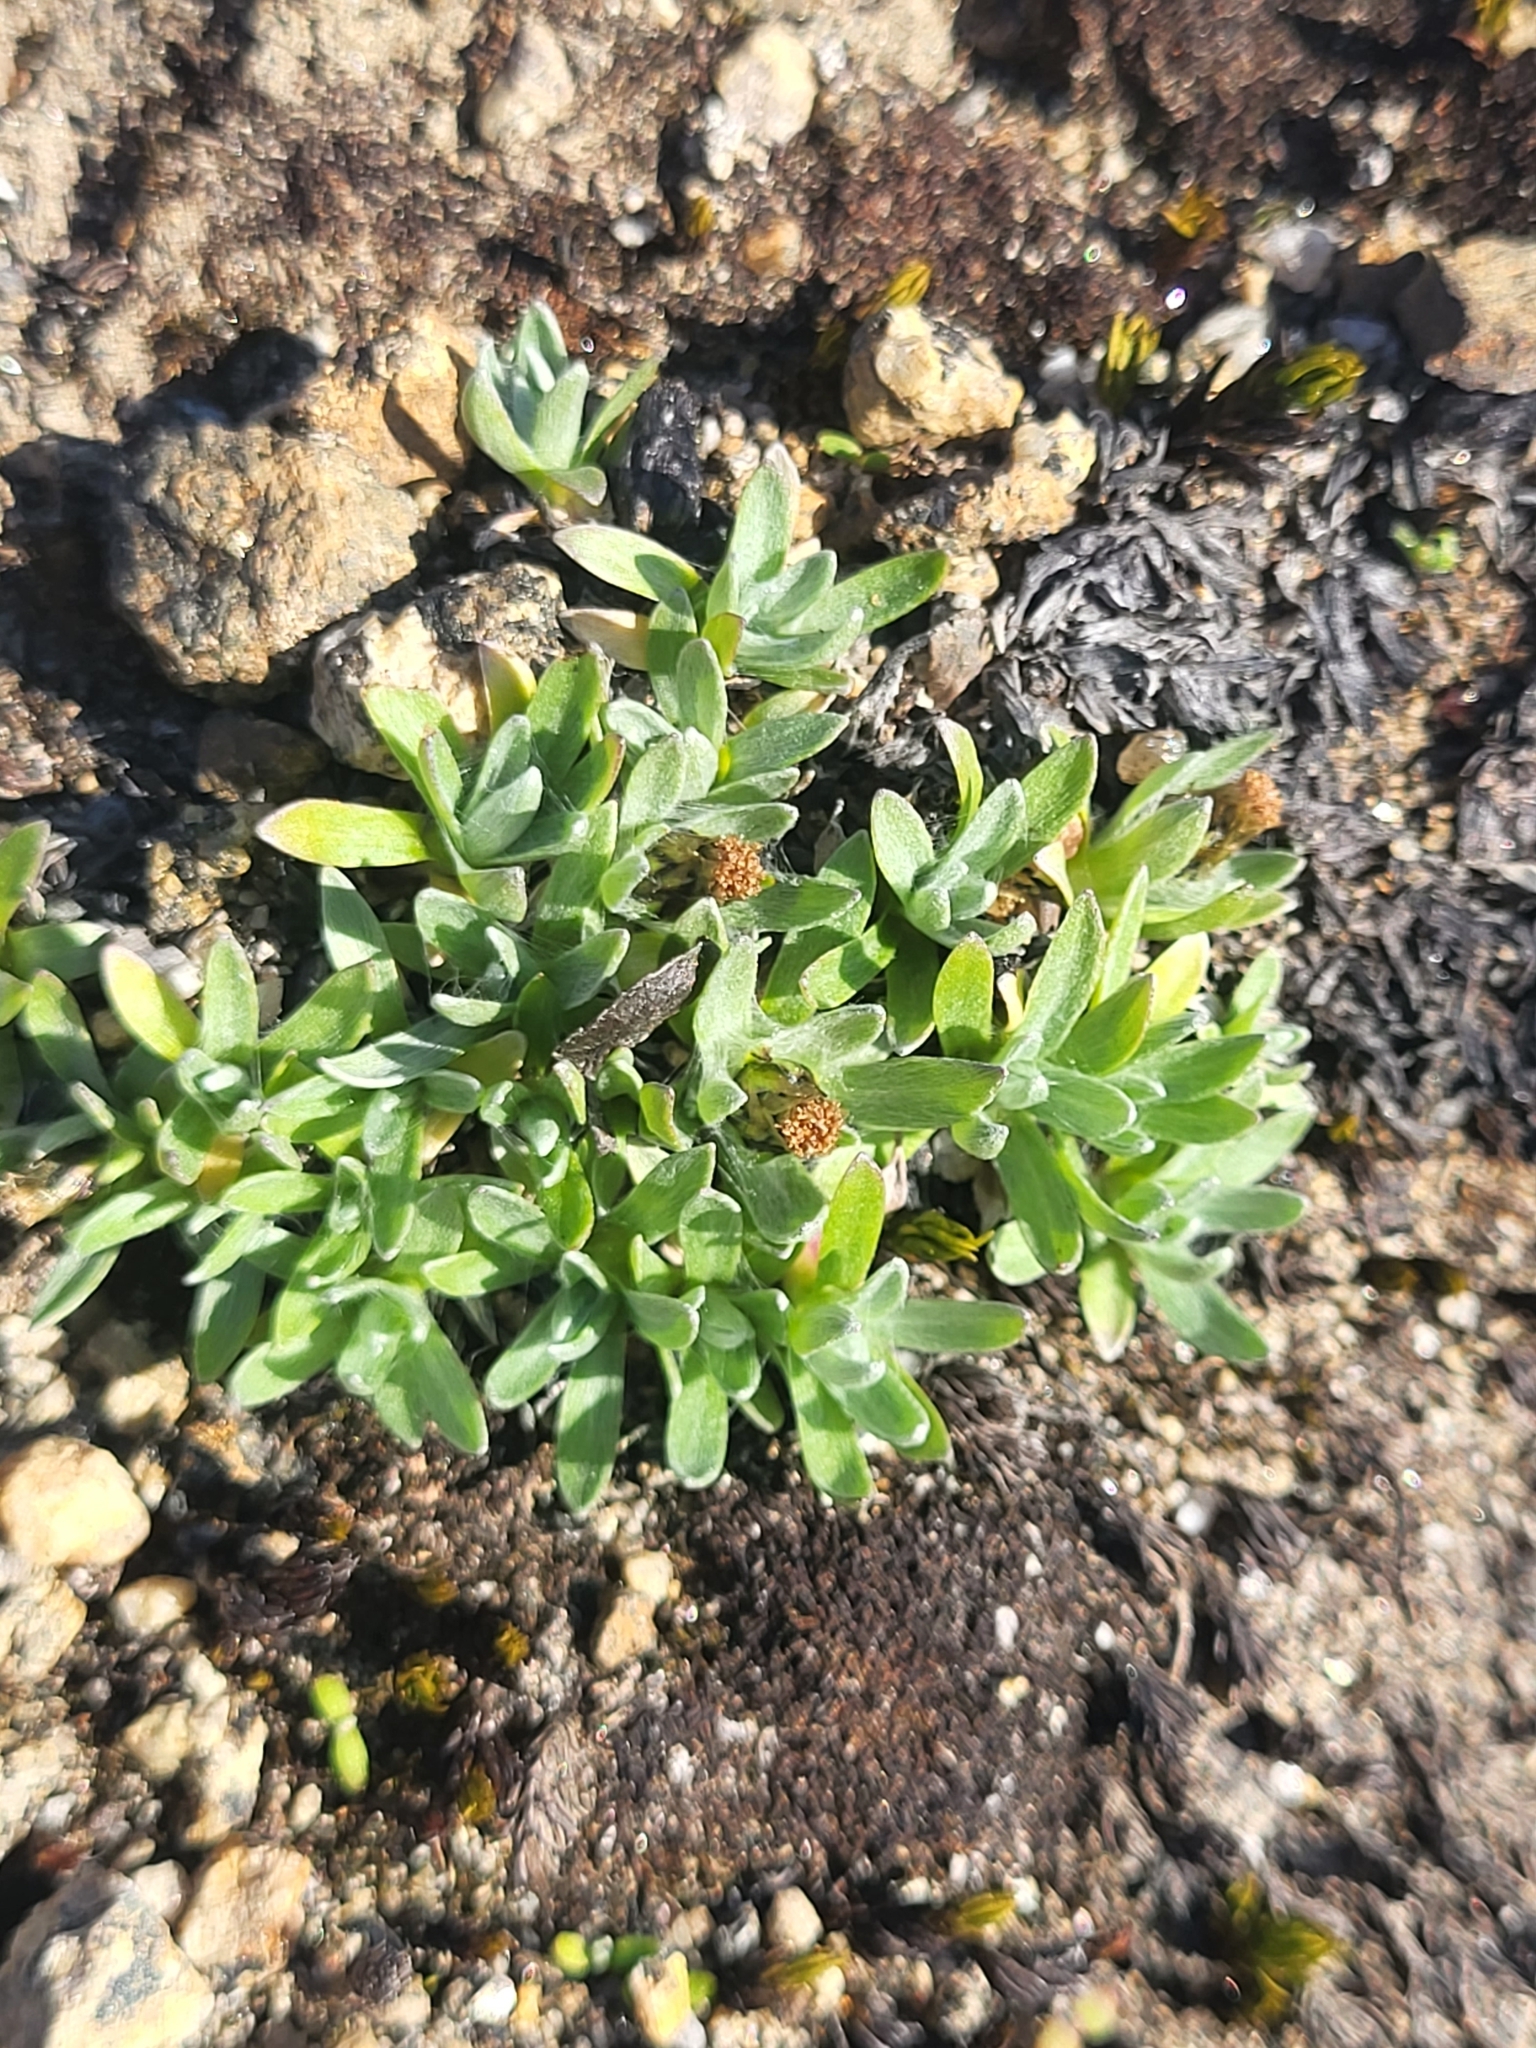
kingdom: Plantae
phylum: Tracheophyta
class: Magnoliopsida
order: Asterales
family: Asteraceae
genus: Omalotheca
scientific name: Omalotheca supina
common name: Alpine arctic-cudweed
